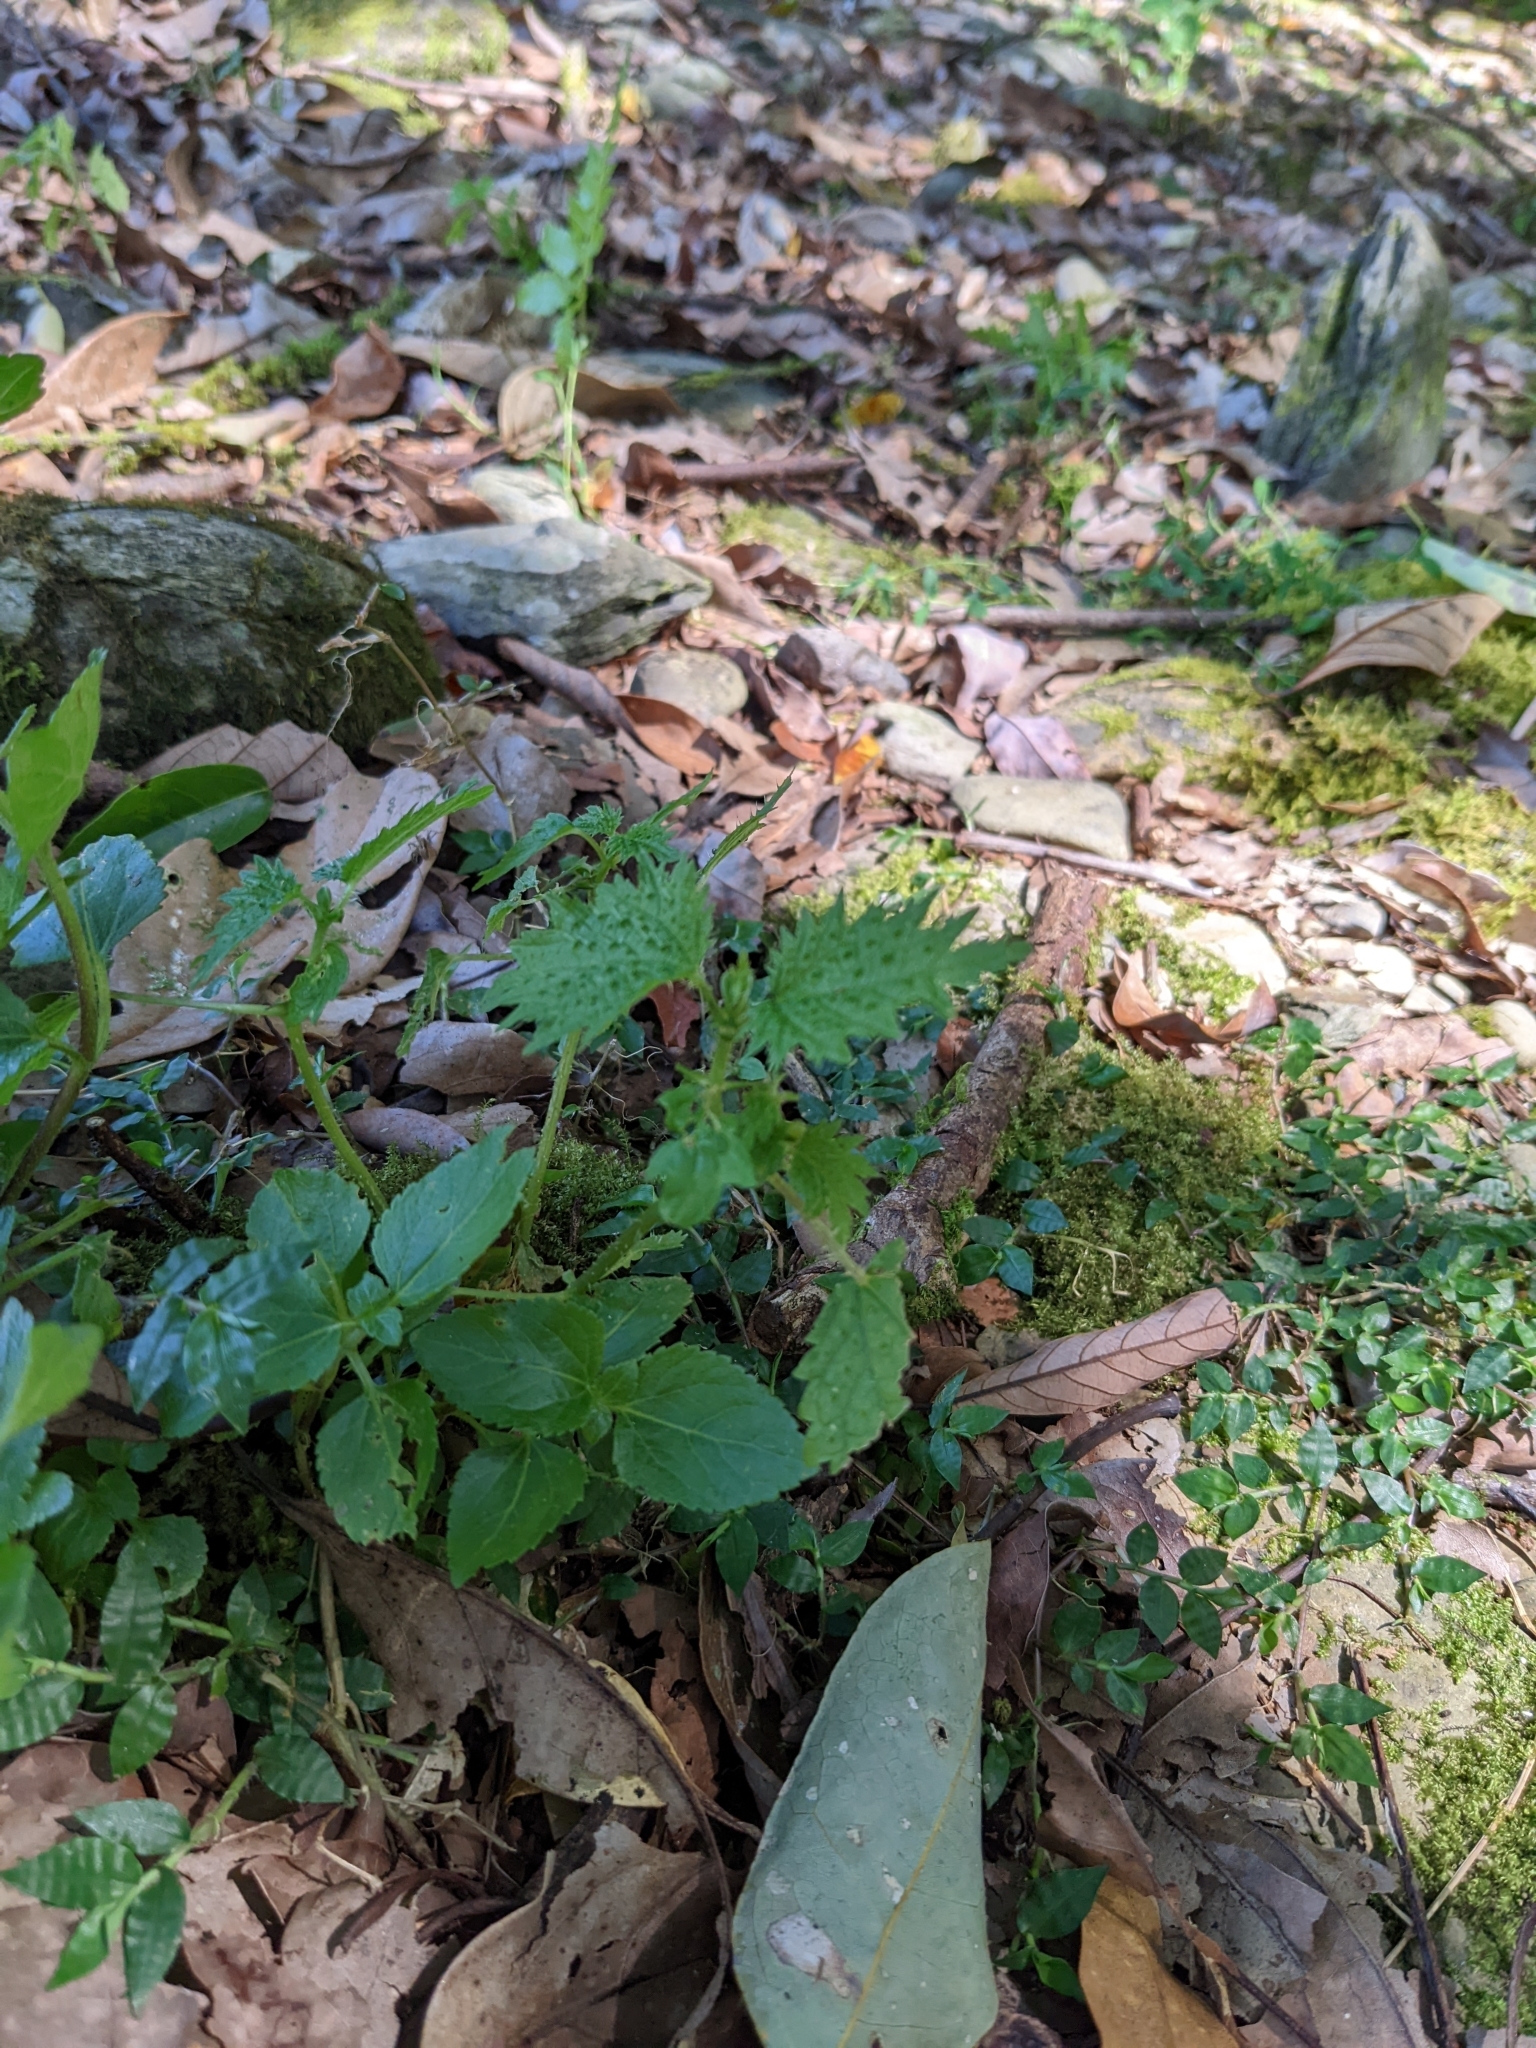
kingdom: Plantae
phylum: Tracheophyta
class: Magnoliopsida
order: Rosales
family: Urticaceae
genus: Urtica
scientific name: Urtica thunbergiana
